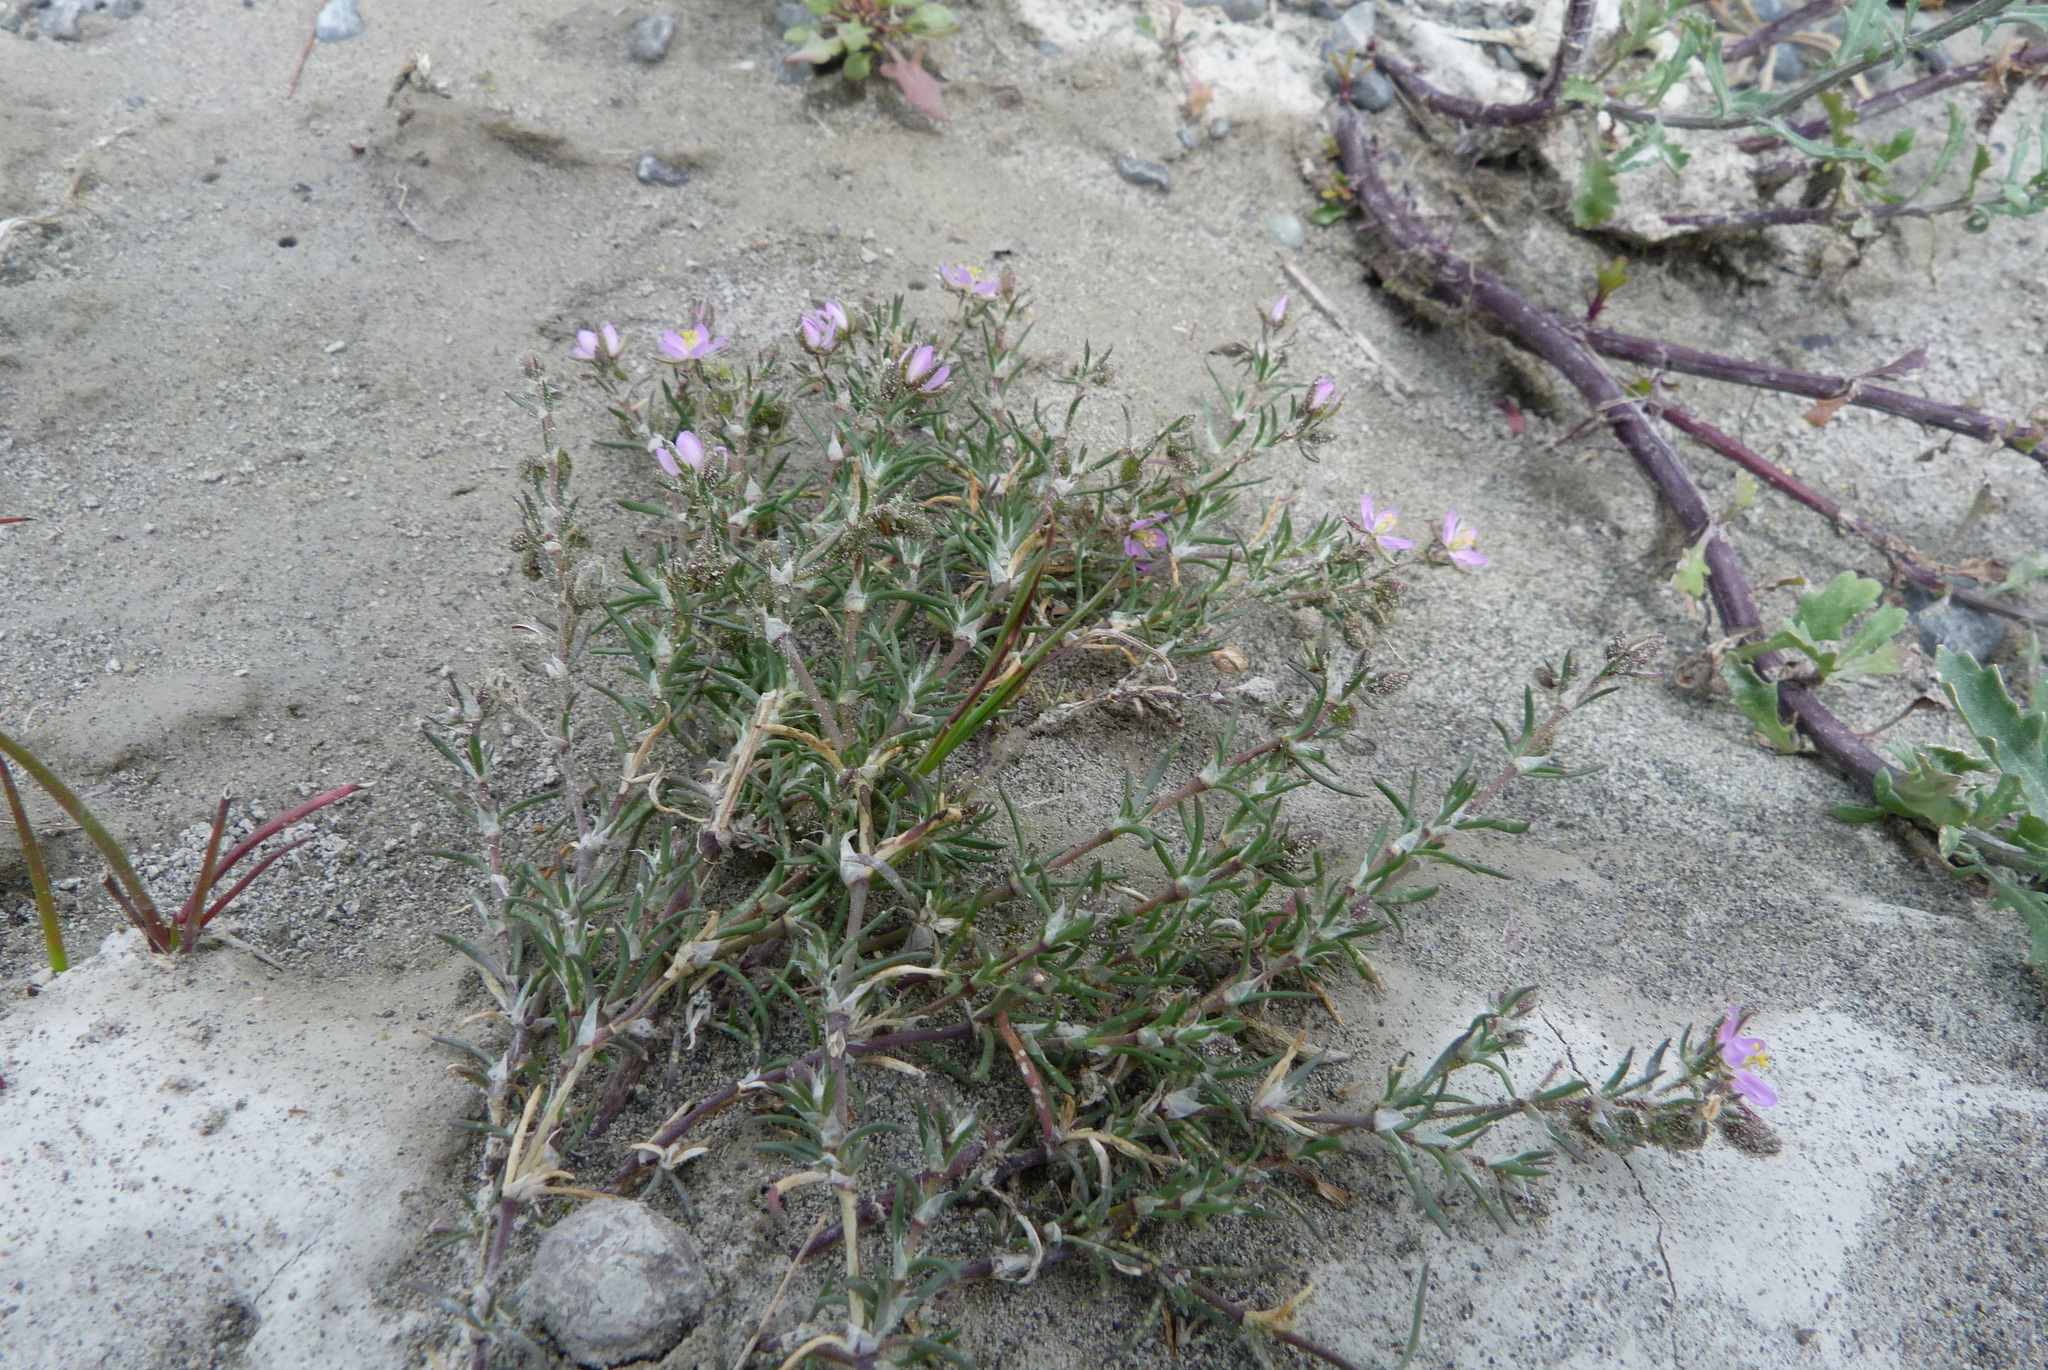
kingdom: Plantae
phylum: Tracheophyta
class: Magnoliopsida
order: Caryophyllales
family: Caryophyllaceae
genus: Spergularia
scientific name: Spergularia rubra
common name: Red sand-spurrey
